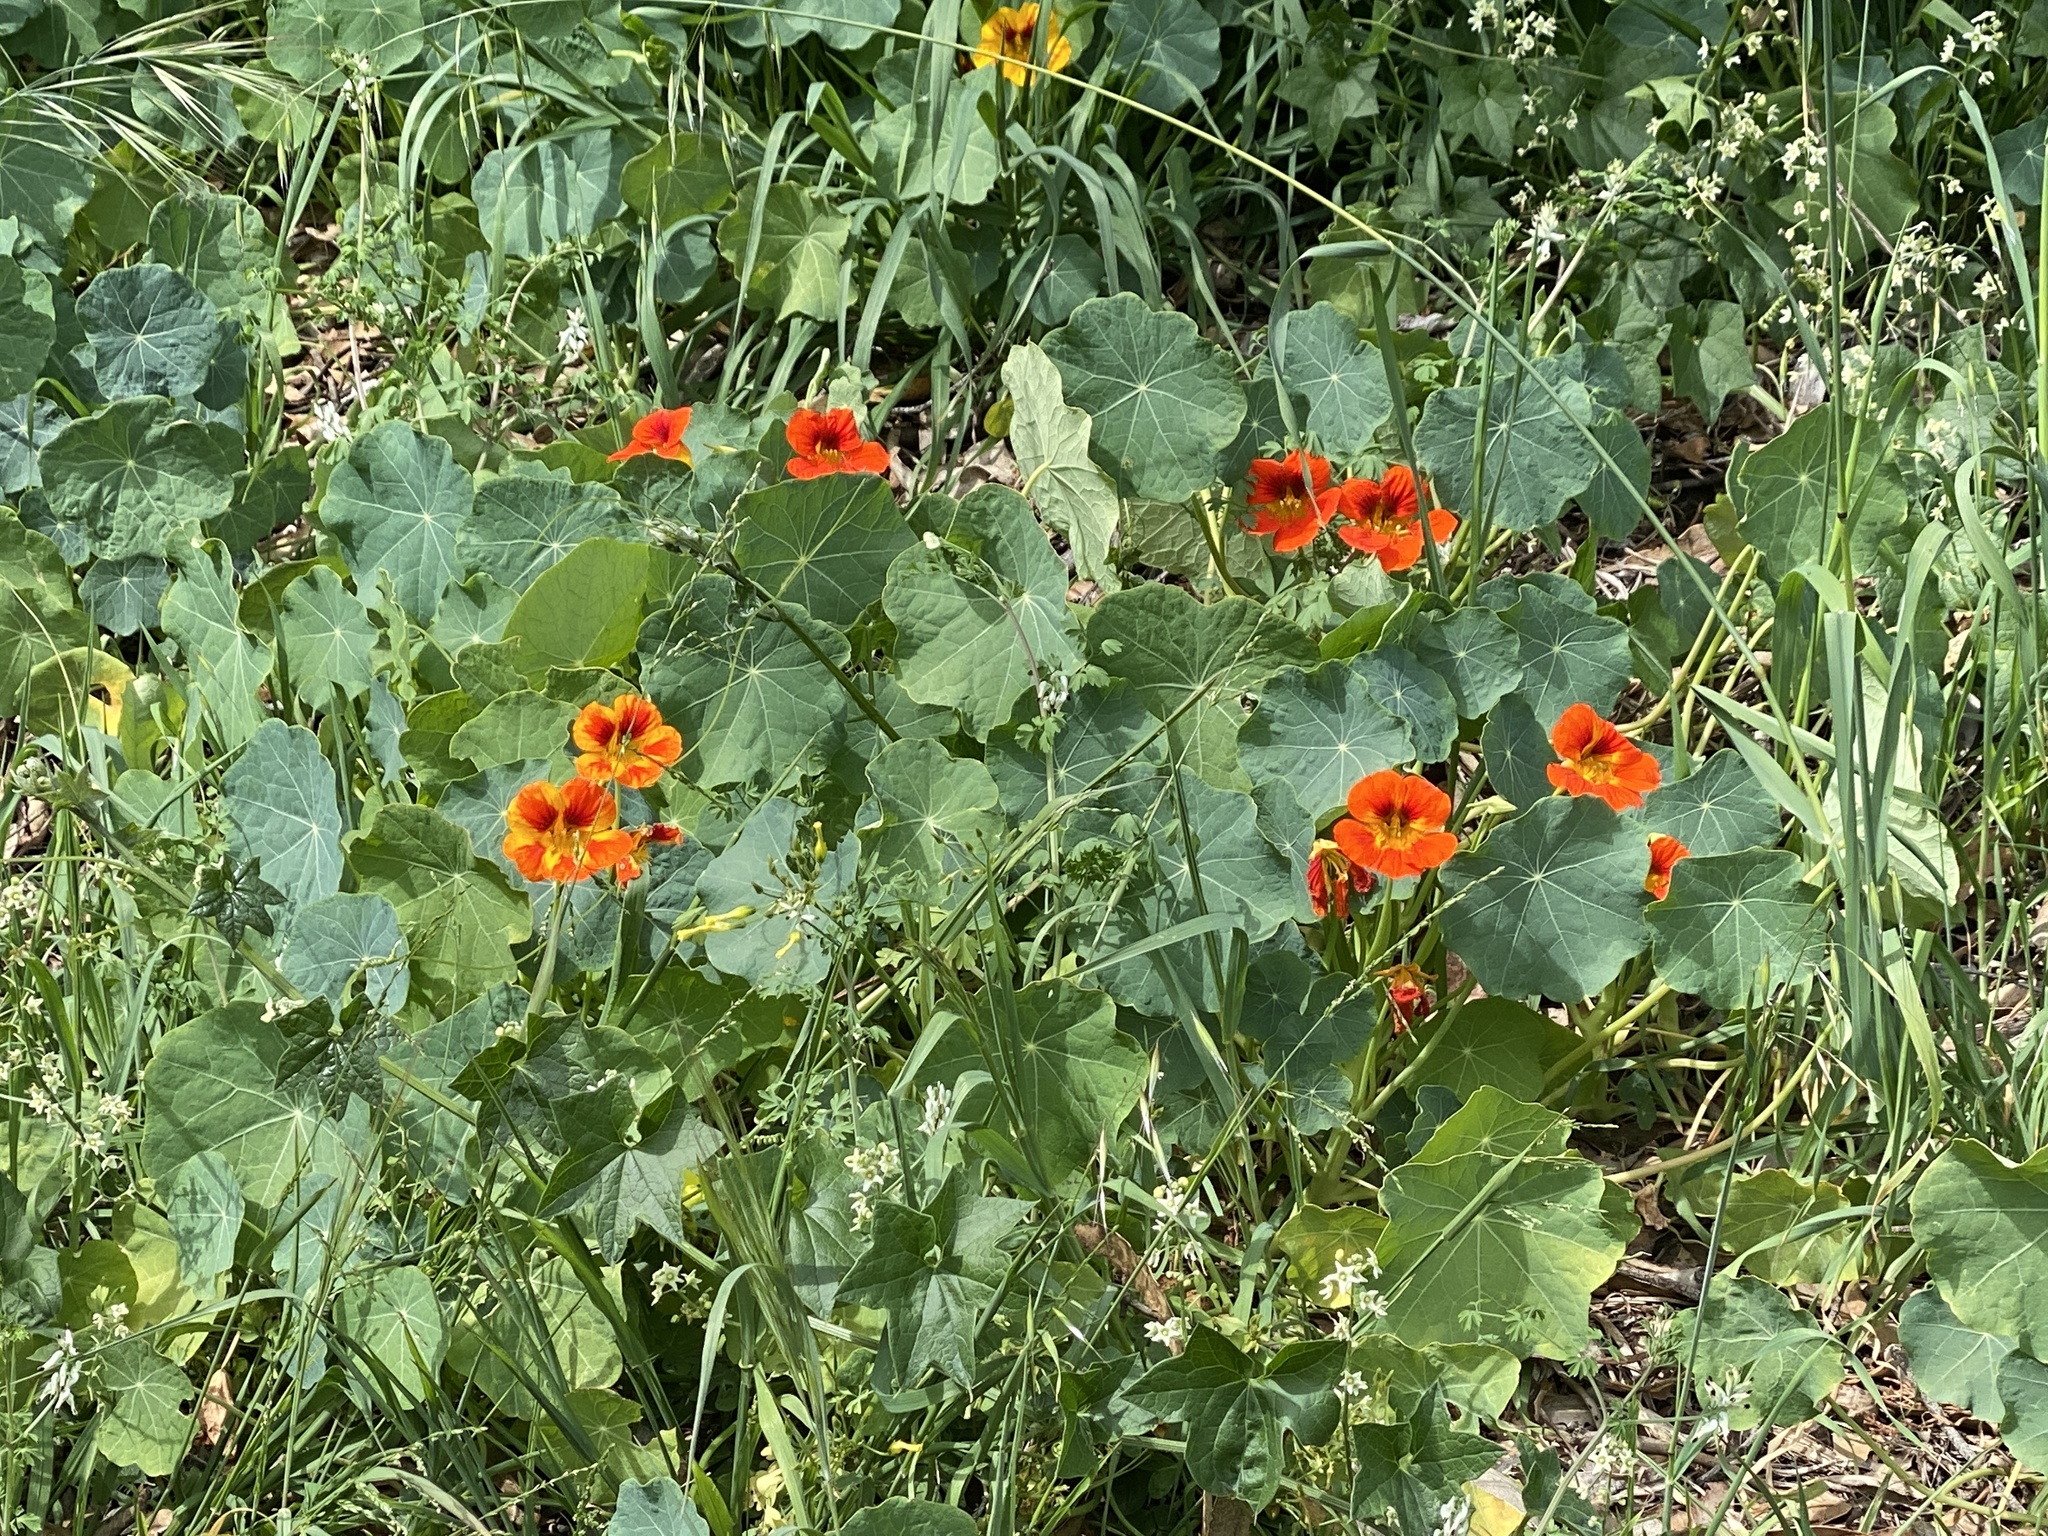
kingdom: Plantae
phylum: Tracheophyta
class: Magnoliopsida
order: Brassicales
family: Tropaeolaceae
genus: Tropaeolum
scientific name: Tropaeolum majus
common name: Nasturtium
